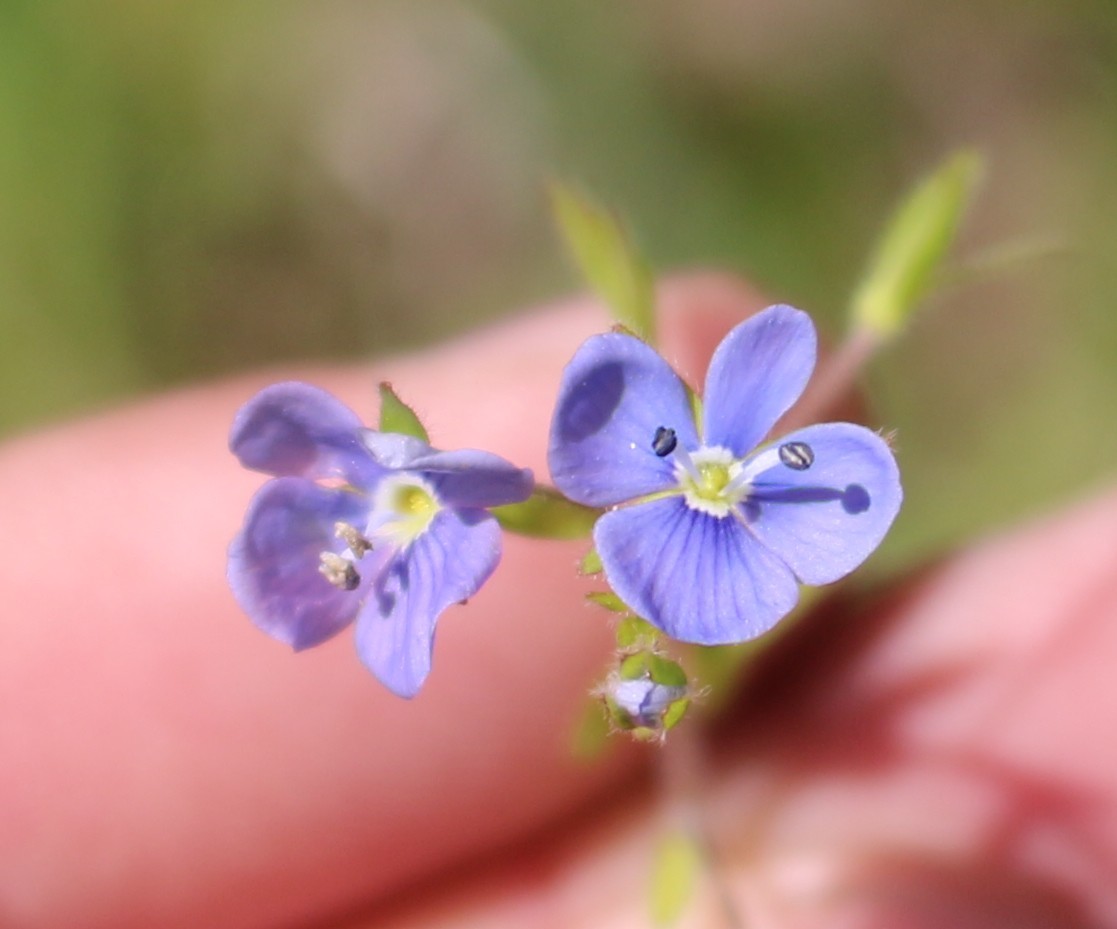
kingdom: Plantae
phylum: Tracheophyta
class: Magnoliopsida
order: Lamiales
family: Plantaginaceae
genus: Veronica
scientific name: Veronica
